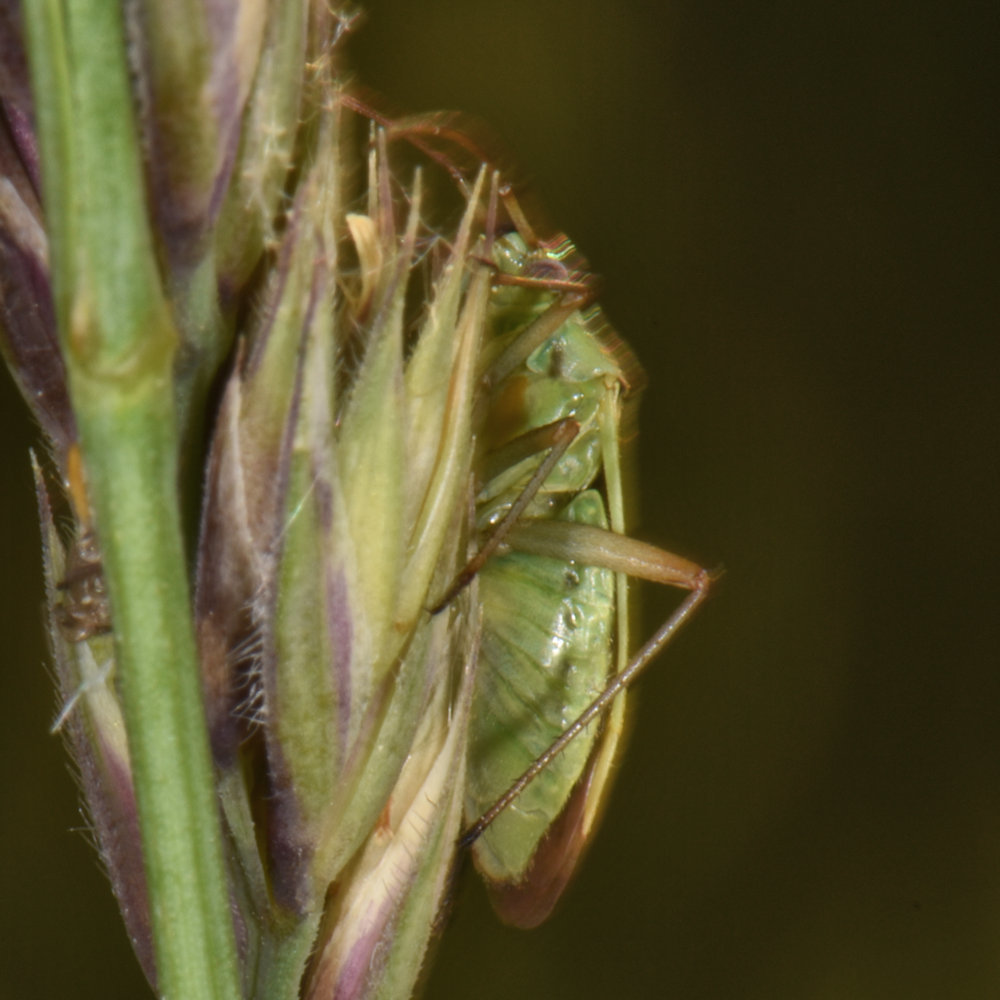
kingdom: Animalia
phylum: Arthropoda
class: Insecta
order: Hemiptera
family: Miridae
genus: Stenotus
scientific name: Stenotus binotatus
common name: Plant bug
